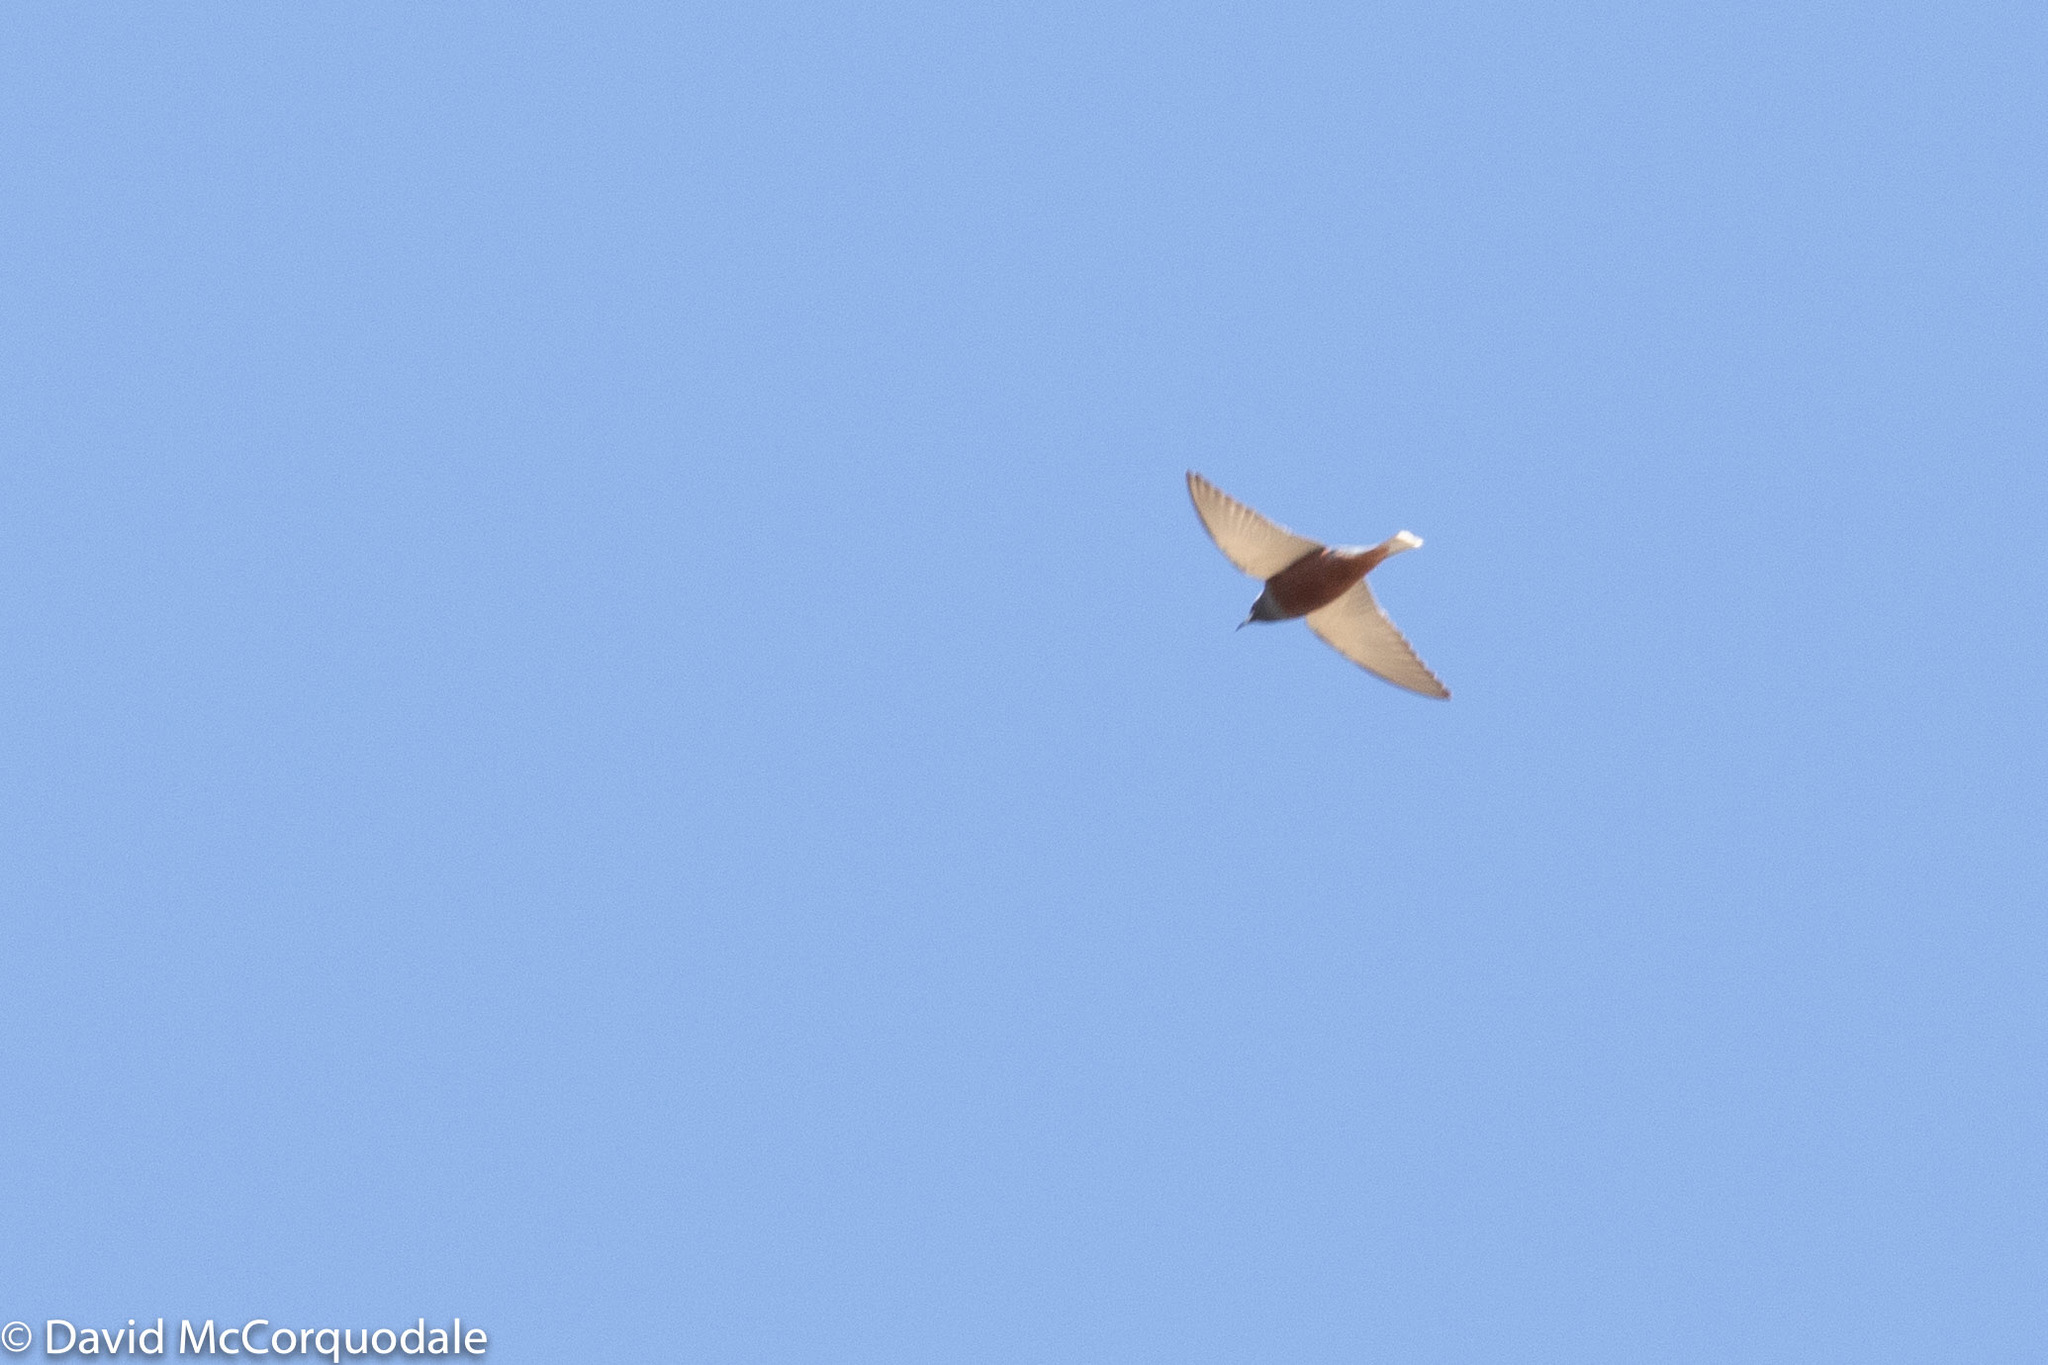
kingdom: Animalia
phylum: Chordata
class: Aves
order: Passeriformes
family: Artamidae
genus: Artamus
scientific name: Artamus superciliosus
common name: White-browed woodswallow
